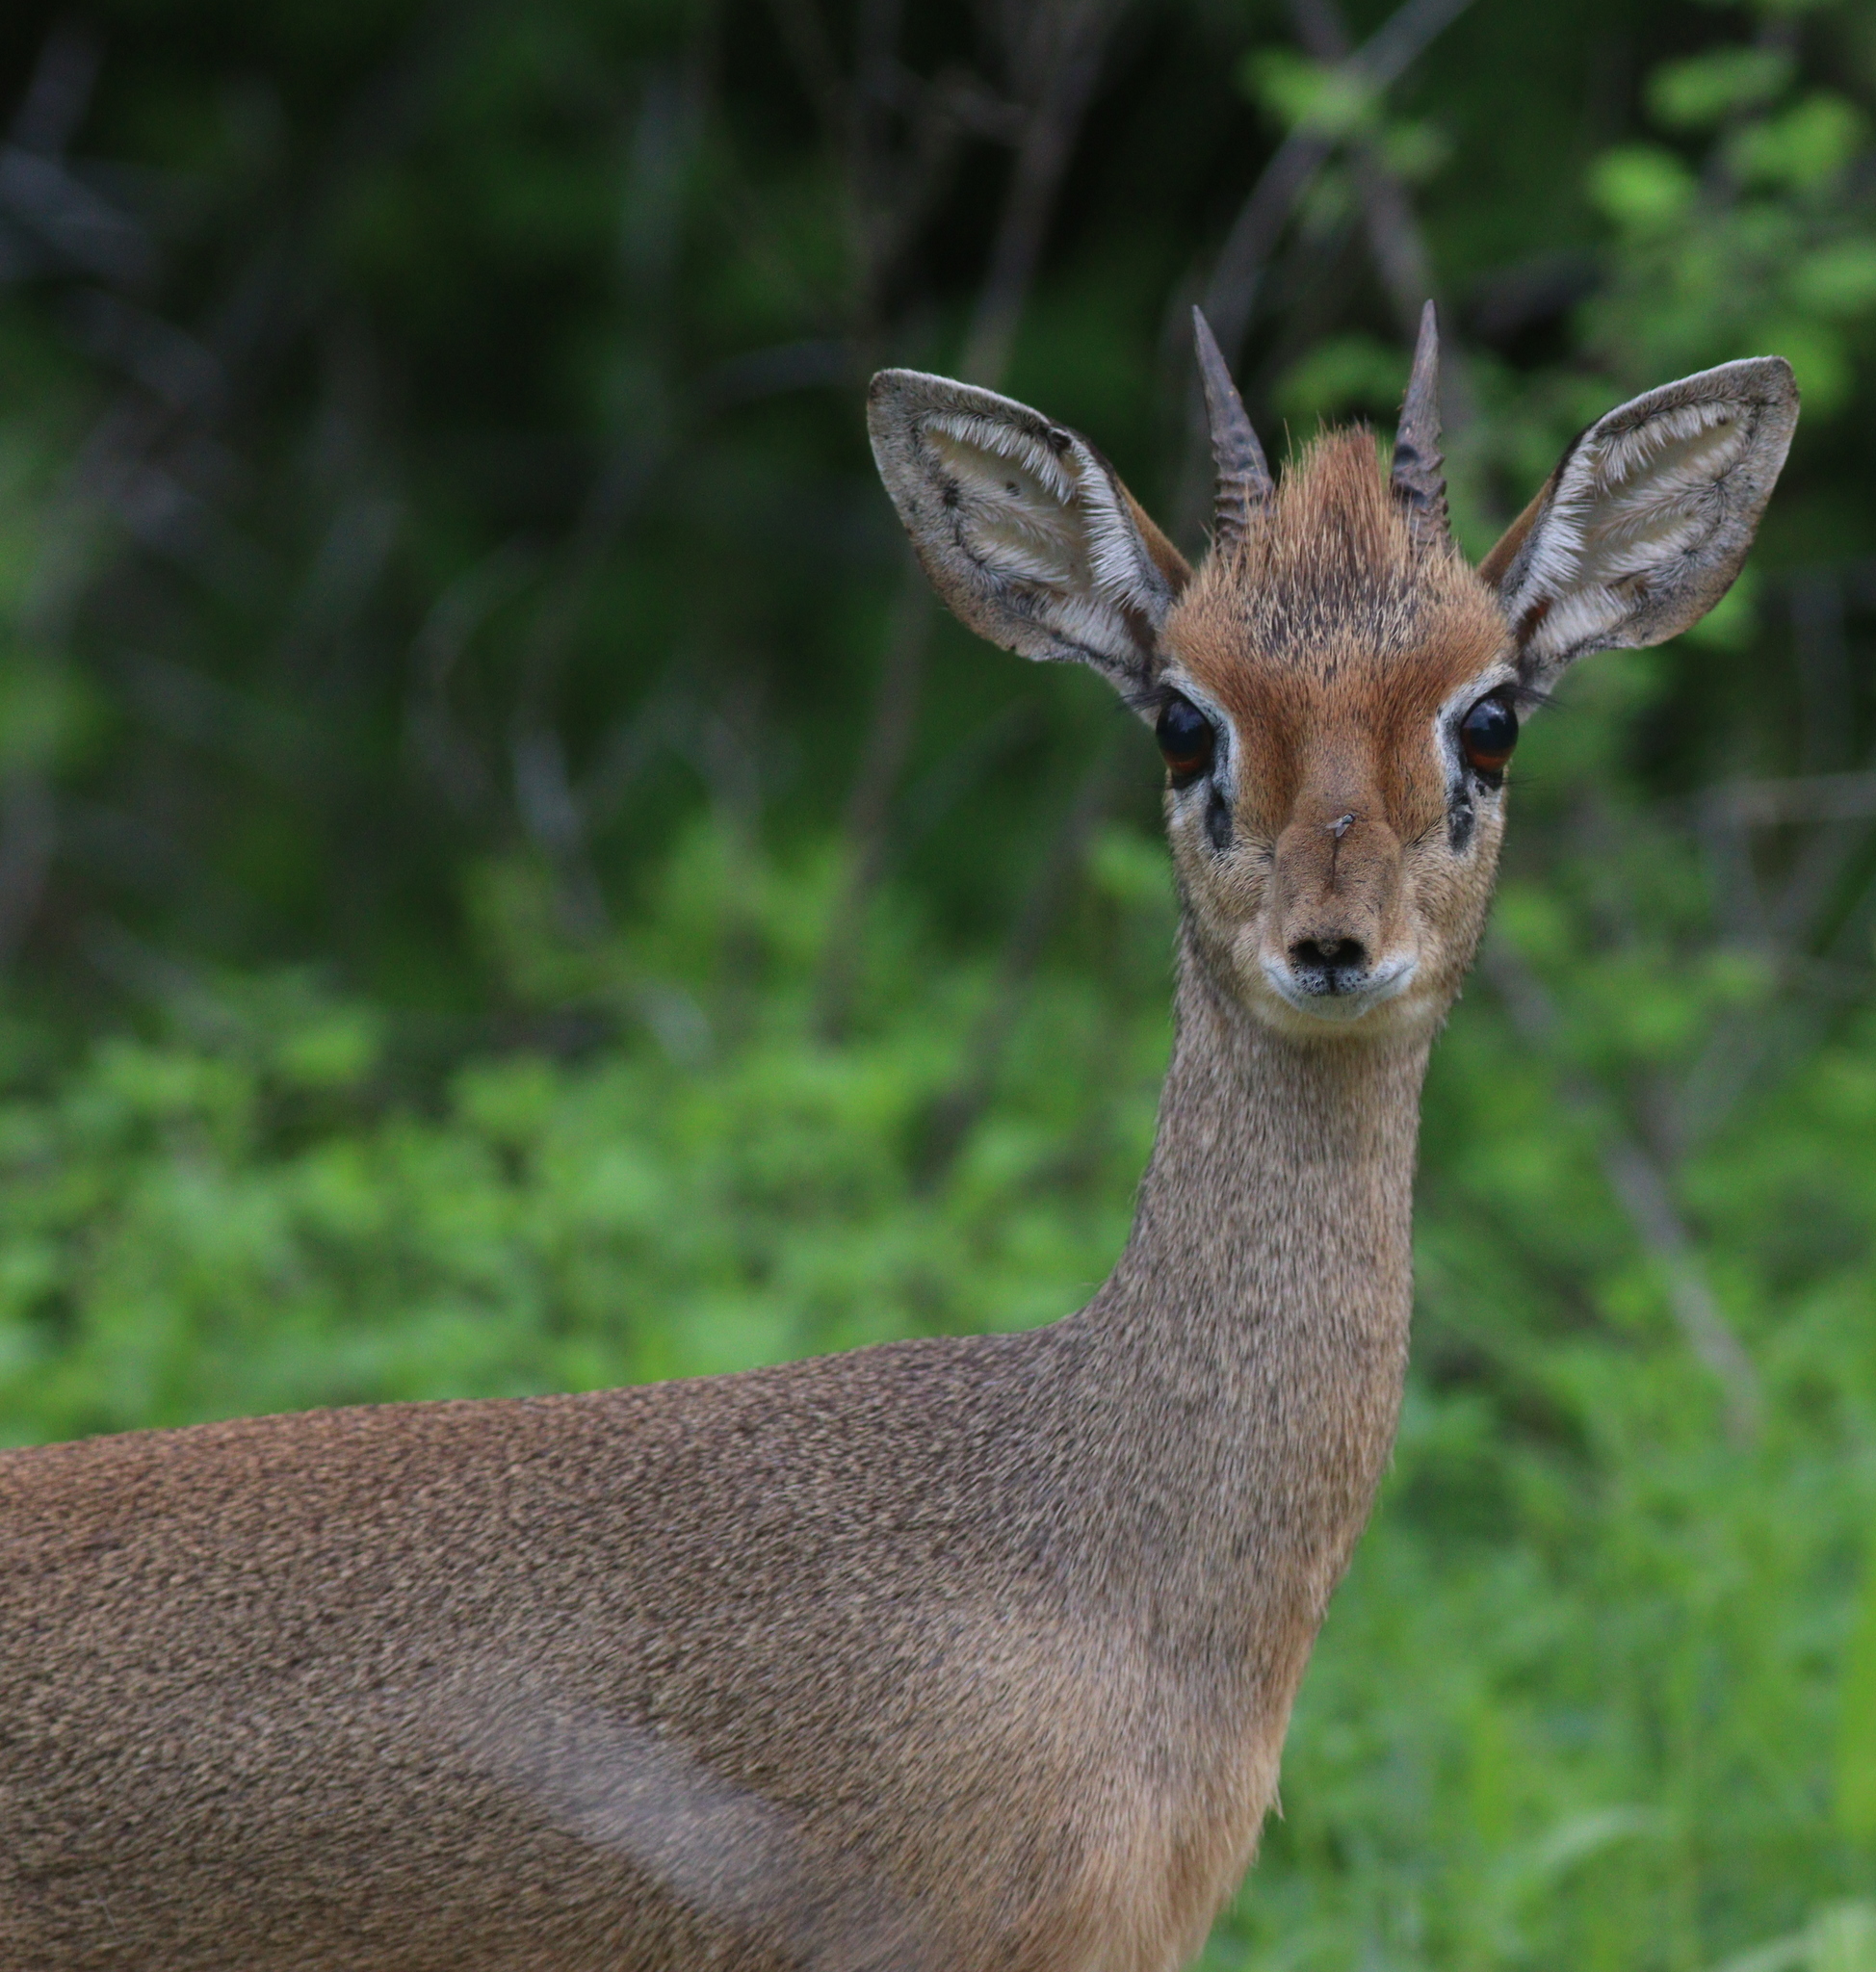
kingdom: Animalia
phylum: Chordata
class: Mammalia
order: Artiodactyla
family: Bovidae
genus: Madoqua
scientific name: Madoqua kirkii
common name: Kirk's dik-dik
